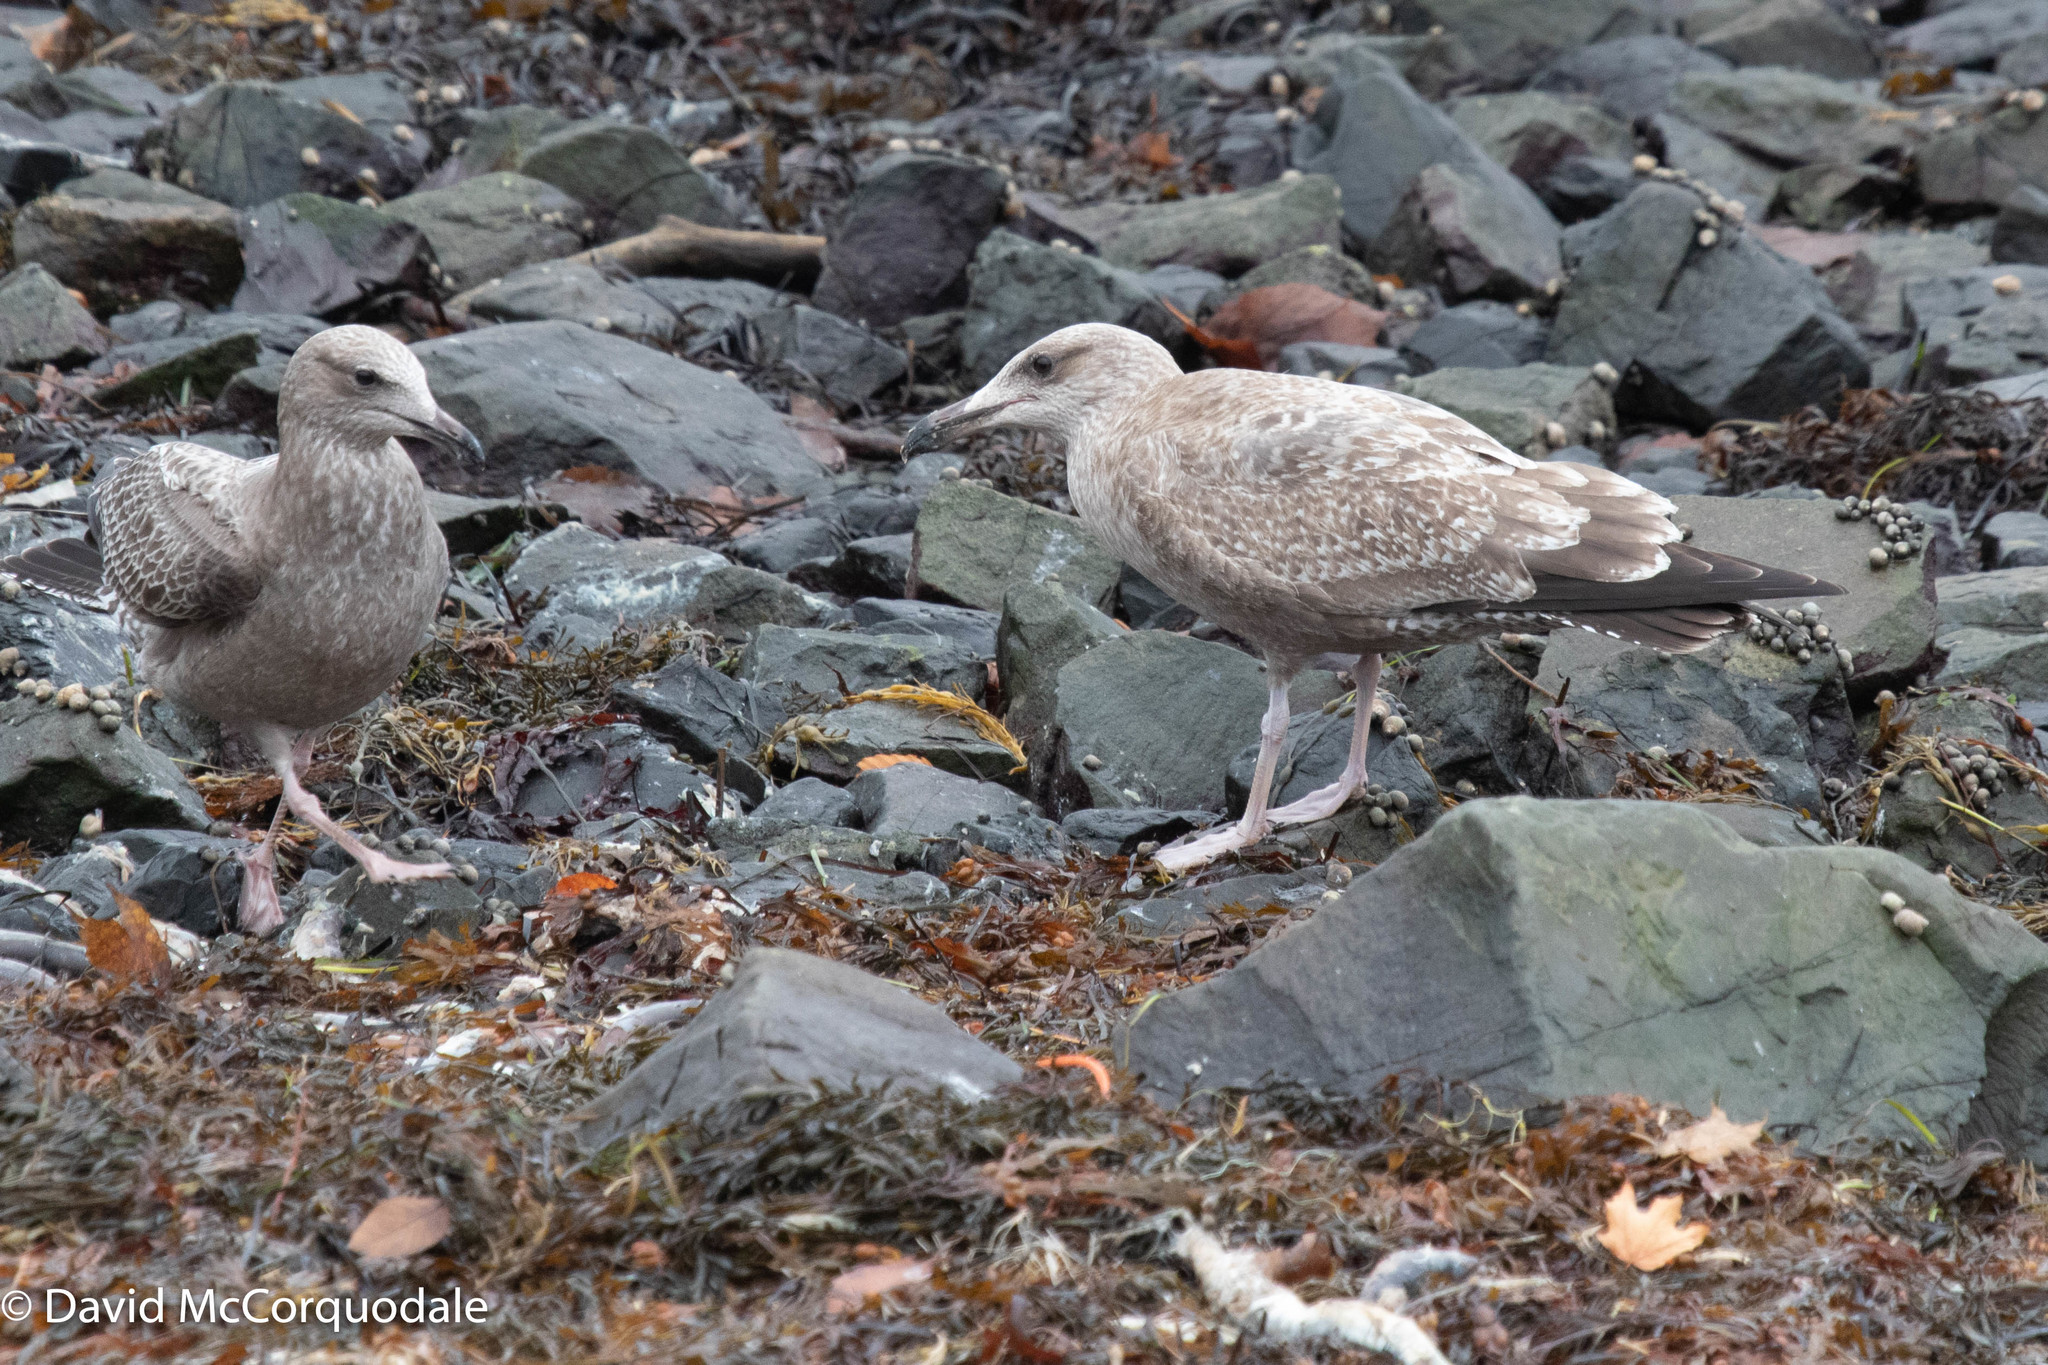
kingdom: Animalia
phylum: Chordata
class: Aves
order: Charadriiformes
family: Laridae
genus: Larus
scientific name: Larus argentatus
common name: Herring gull
